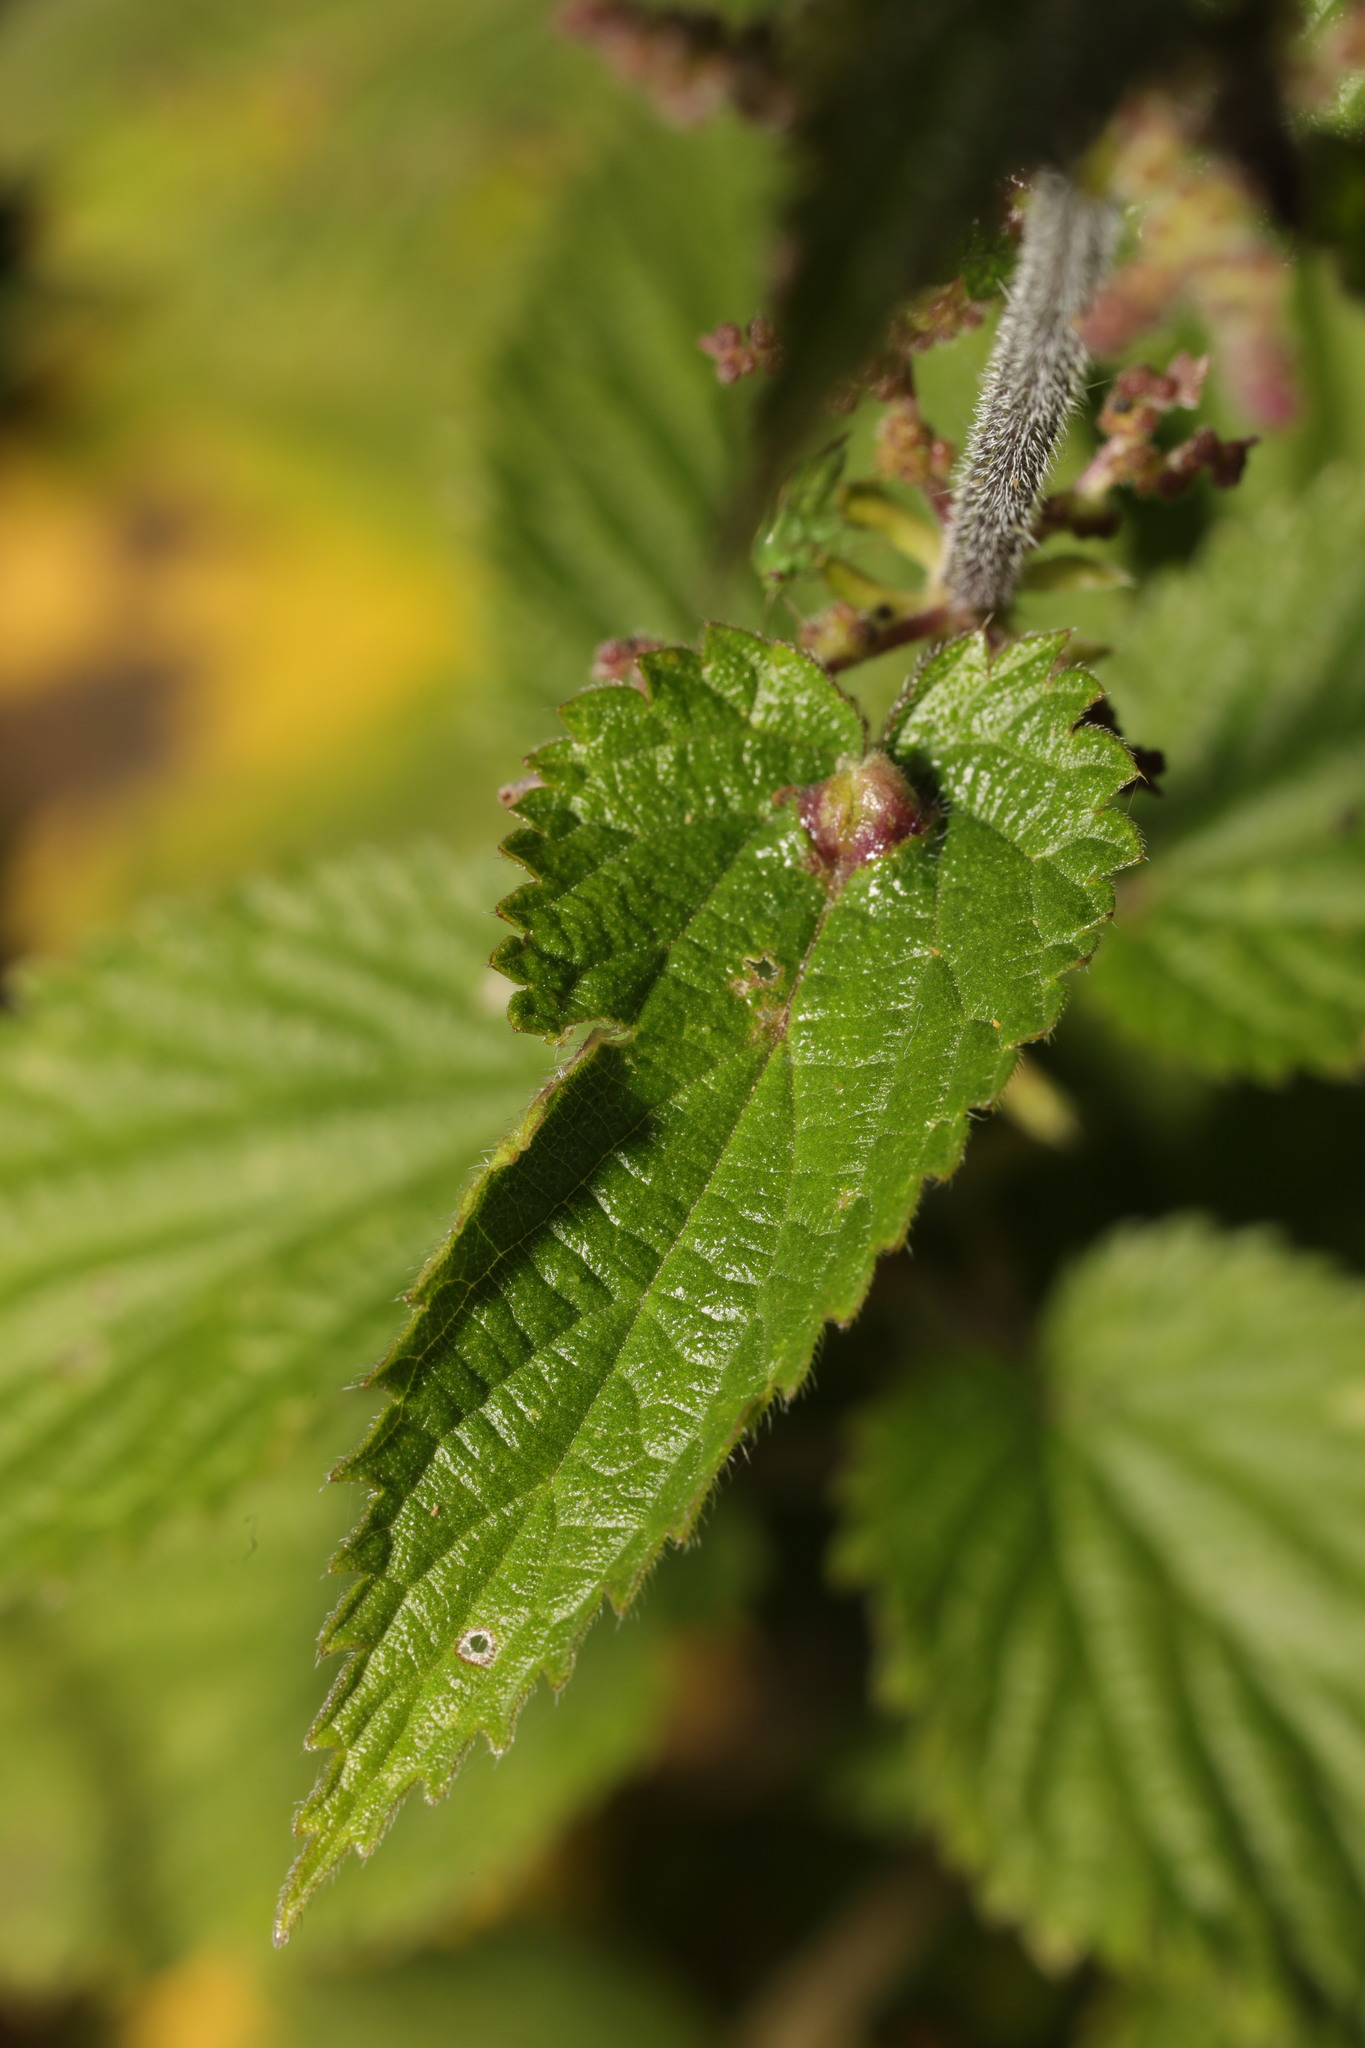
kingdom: Animalia
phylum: Arthropoda
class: Insecta
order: Diptera
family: Cecidomyiidae
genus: Dasineura
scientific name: Dasineura urticae
